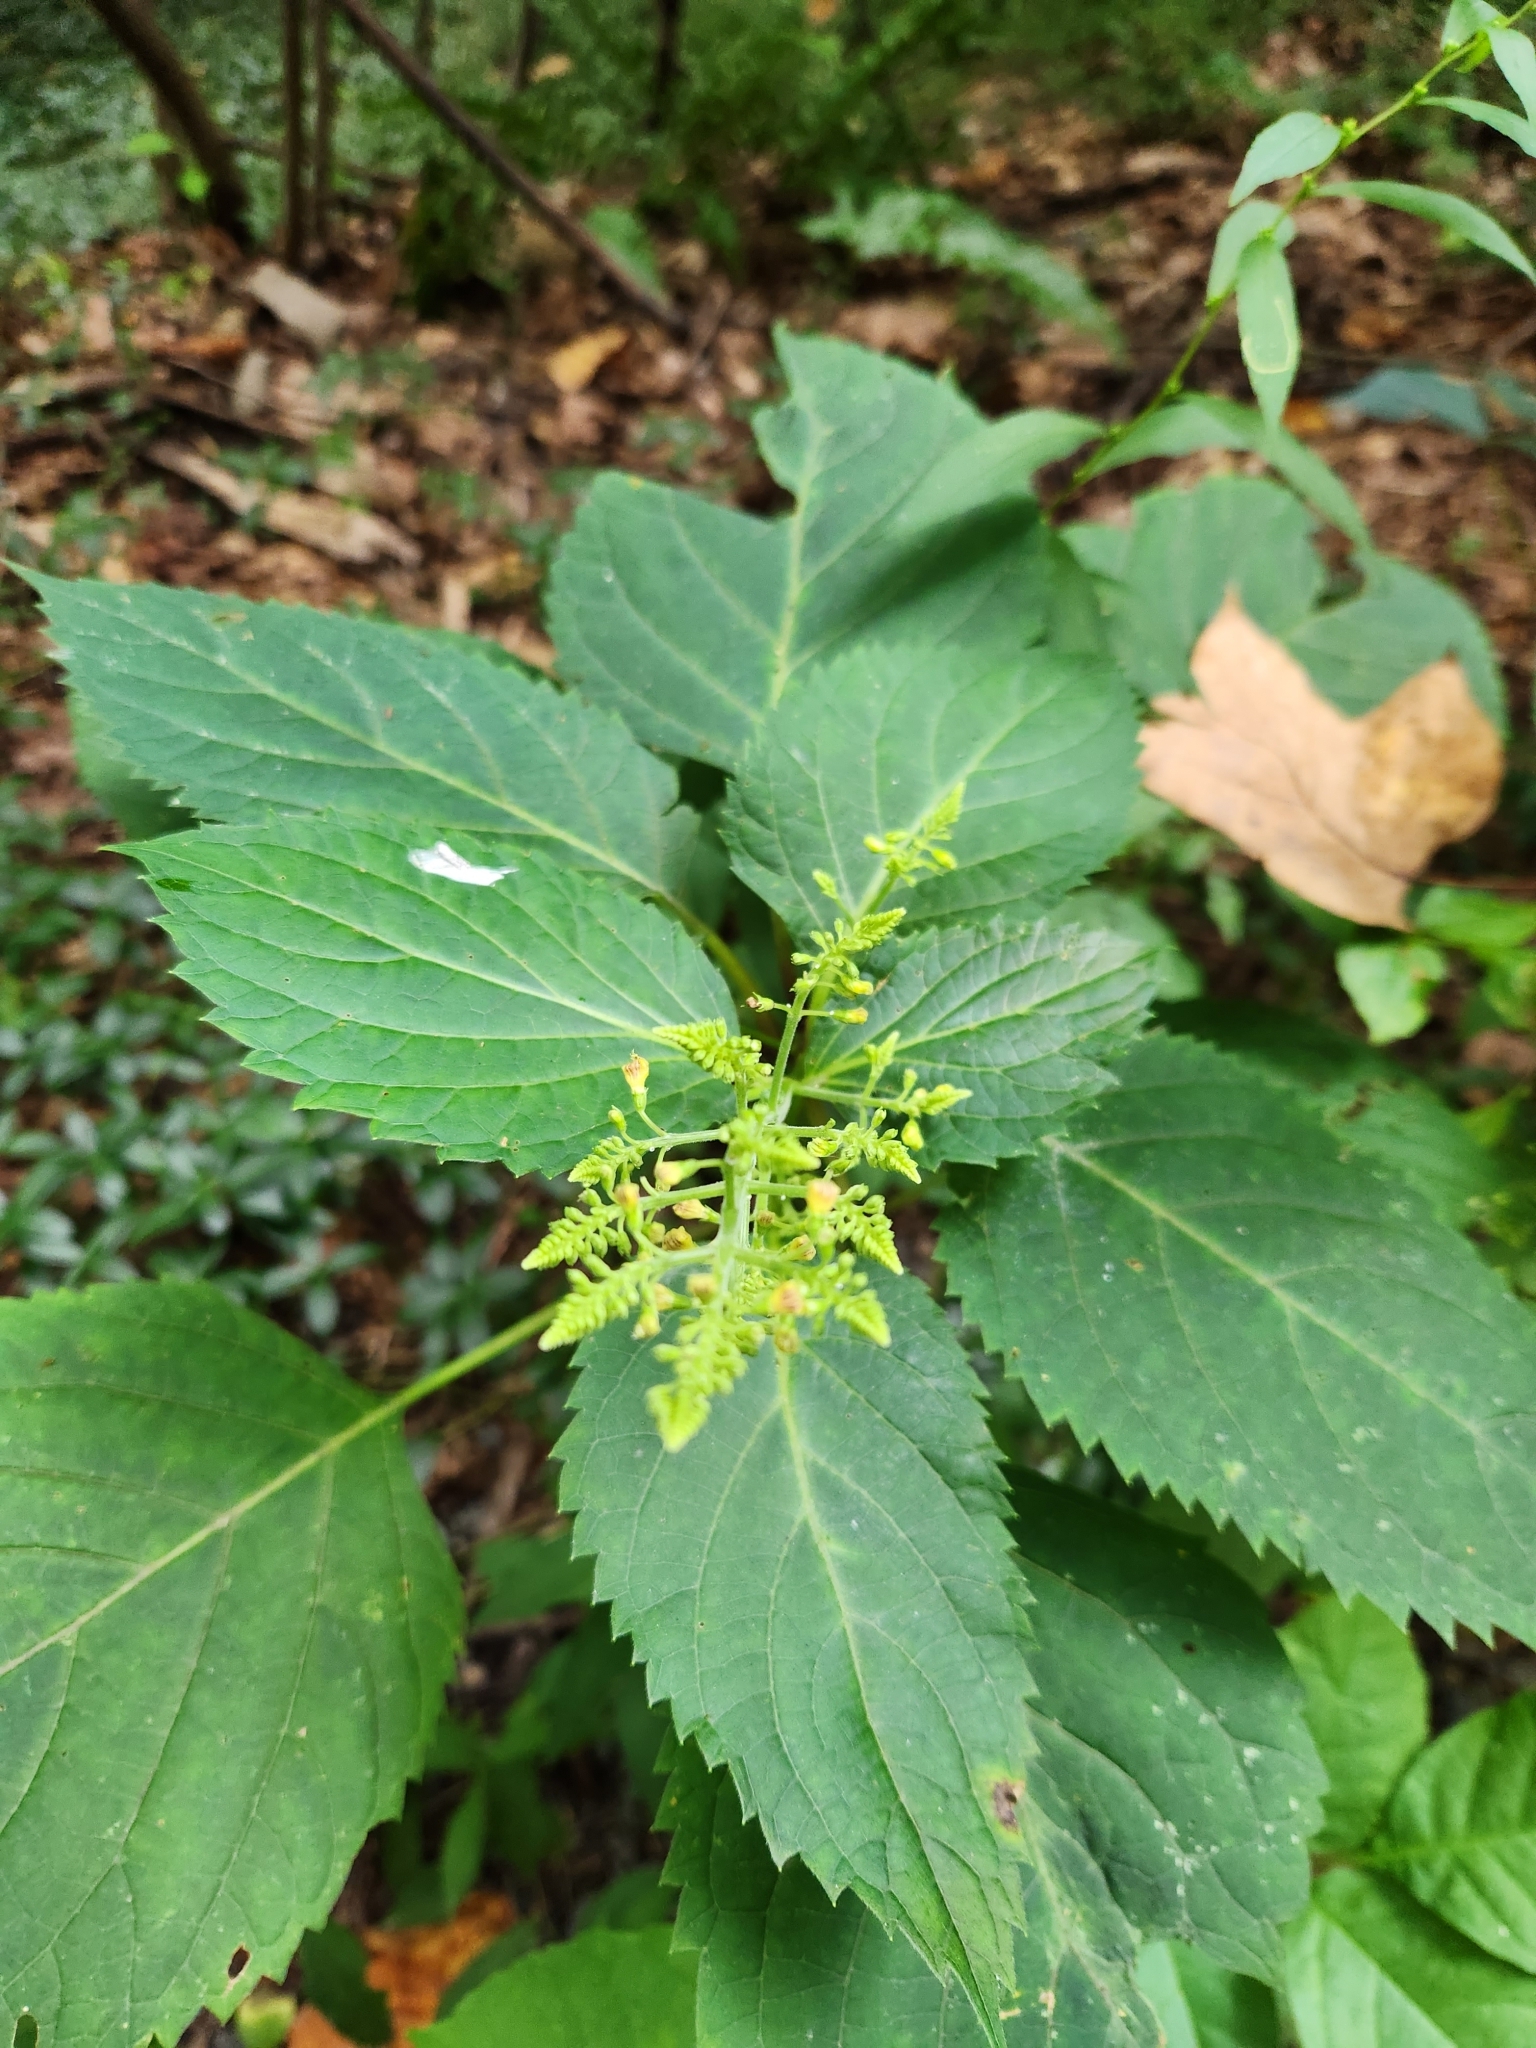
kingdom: Plantae
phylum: Tracheophyta
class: Magnoliopsida
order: Lamiales
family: Lamiaceae
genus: Collinsonia
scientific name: Collinsonia canadensis
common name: Northern horsebalm
